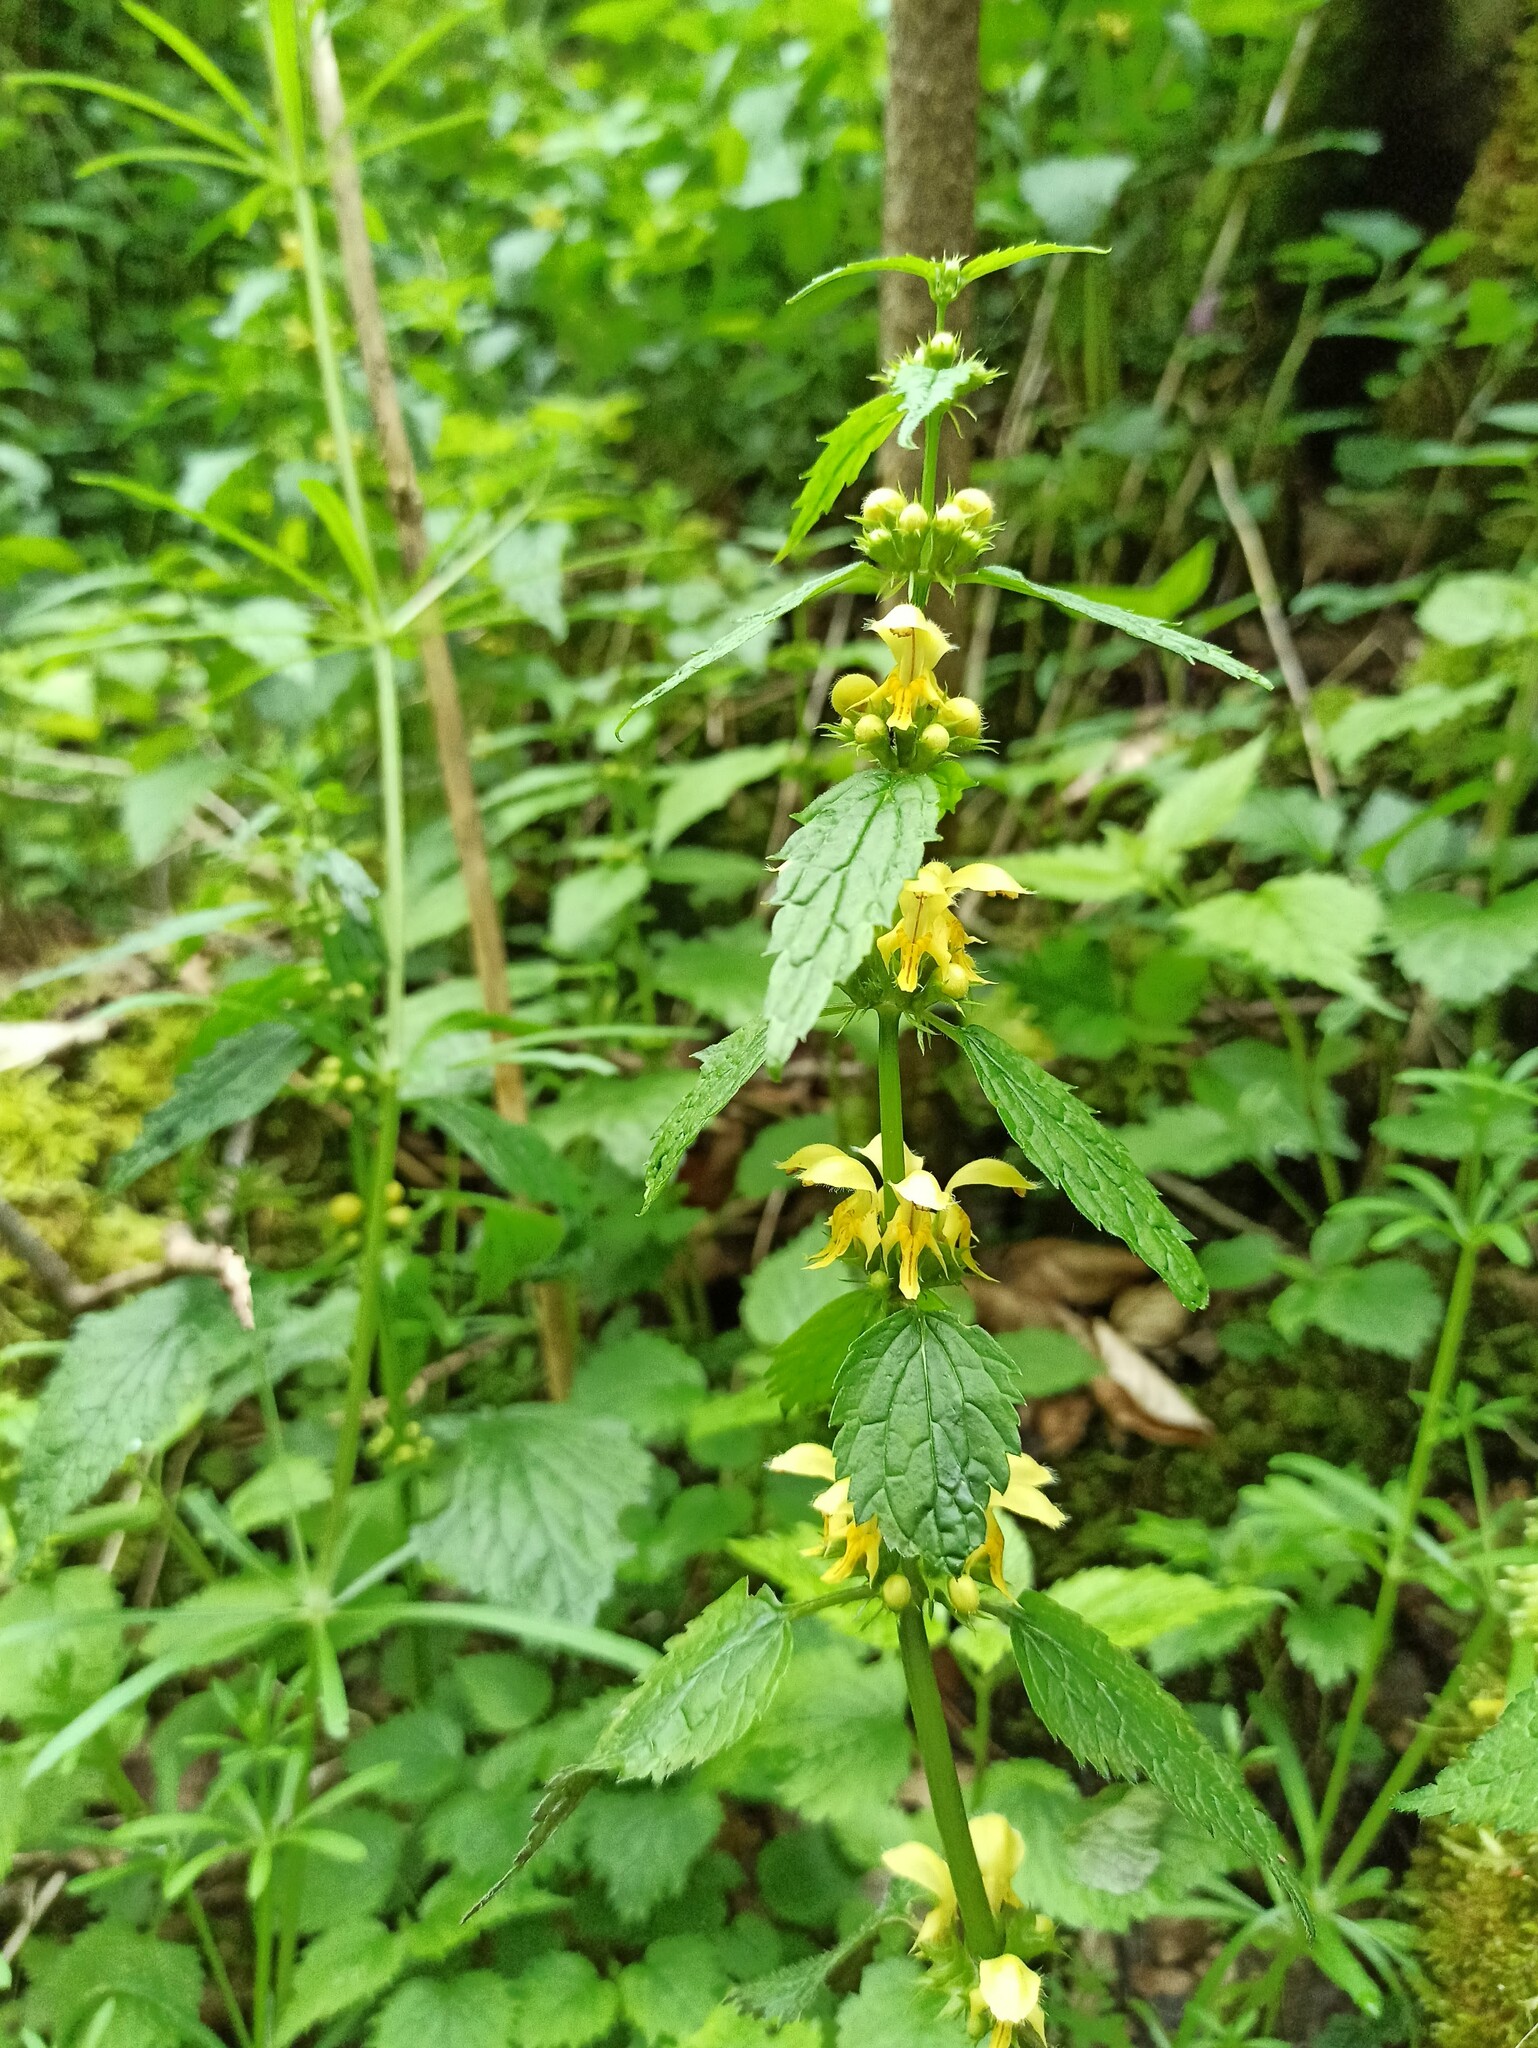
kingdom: Plantae
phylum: Tracheophyta
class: Magnoliopsida
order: Lamiales
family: Lamiaceae
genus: Lamium
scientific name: Lamium galeobdolon
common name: Yellow archangel
